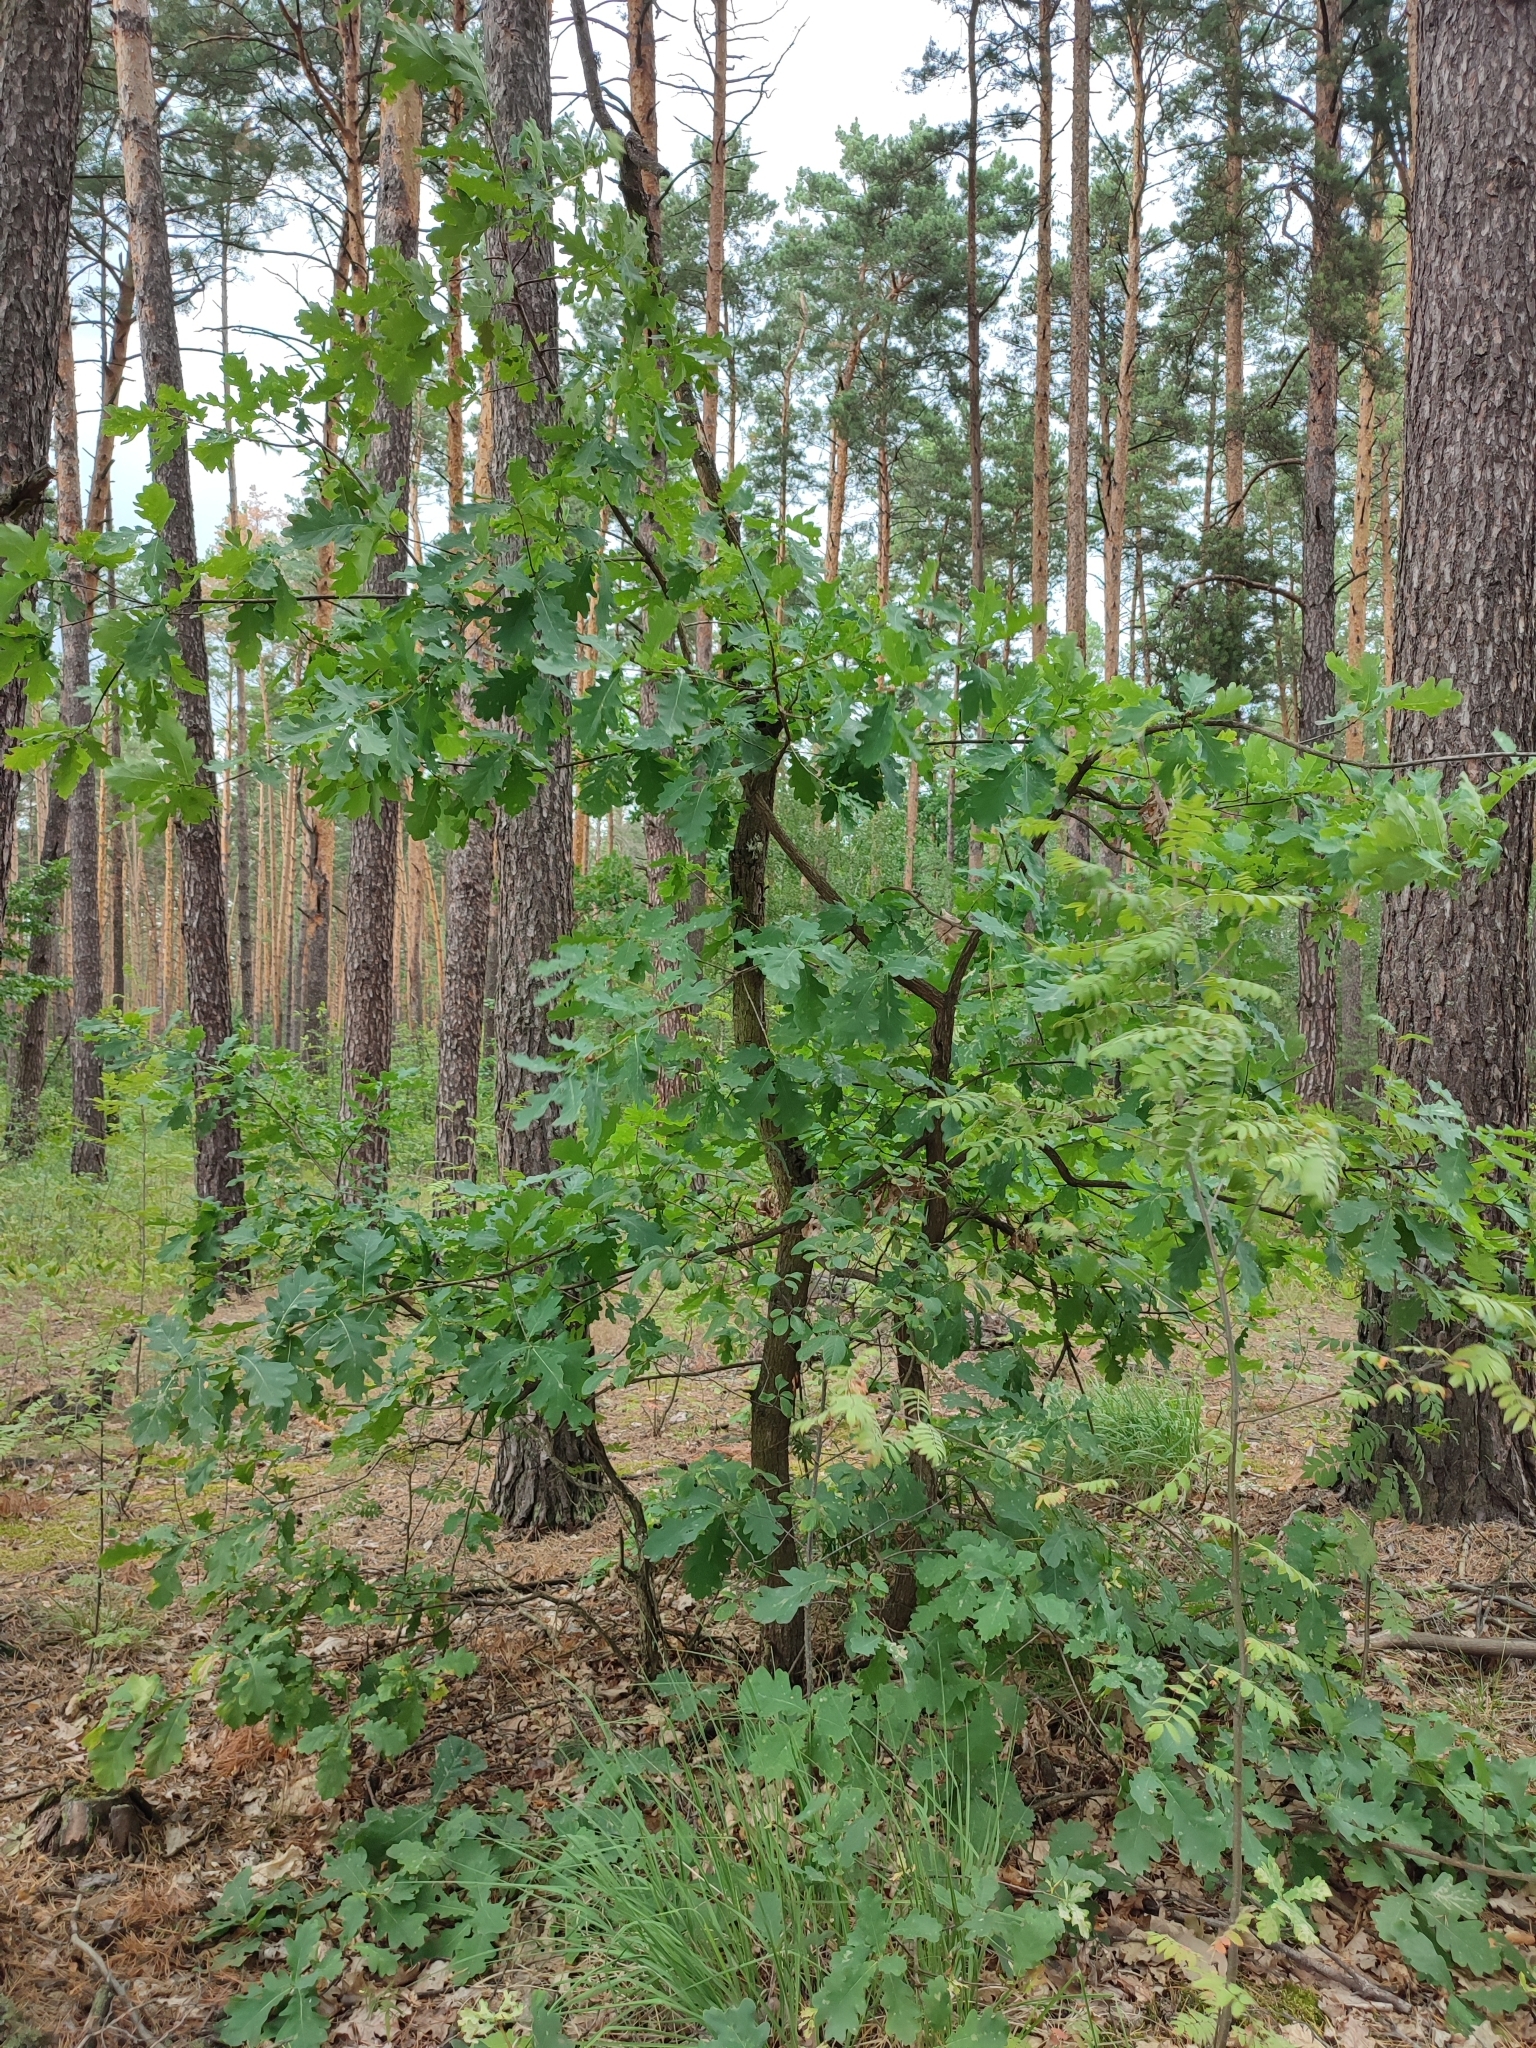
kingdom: Plantae
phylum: Tracheophyta
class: Magnoliopsida
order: Fagales
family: Fagaceae
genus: Quercus
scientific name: Quercus robur
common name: Pedunculate oak
